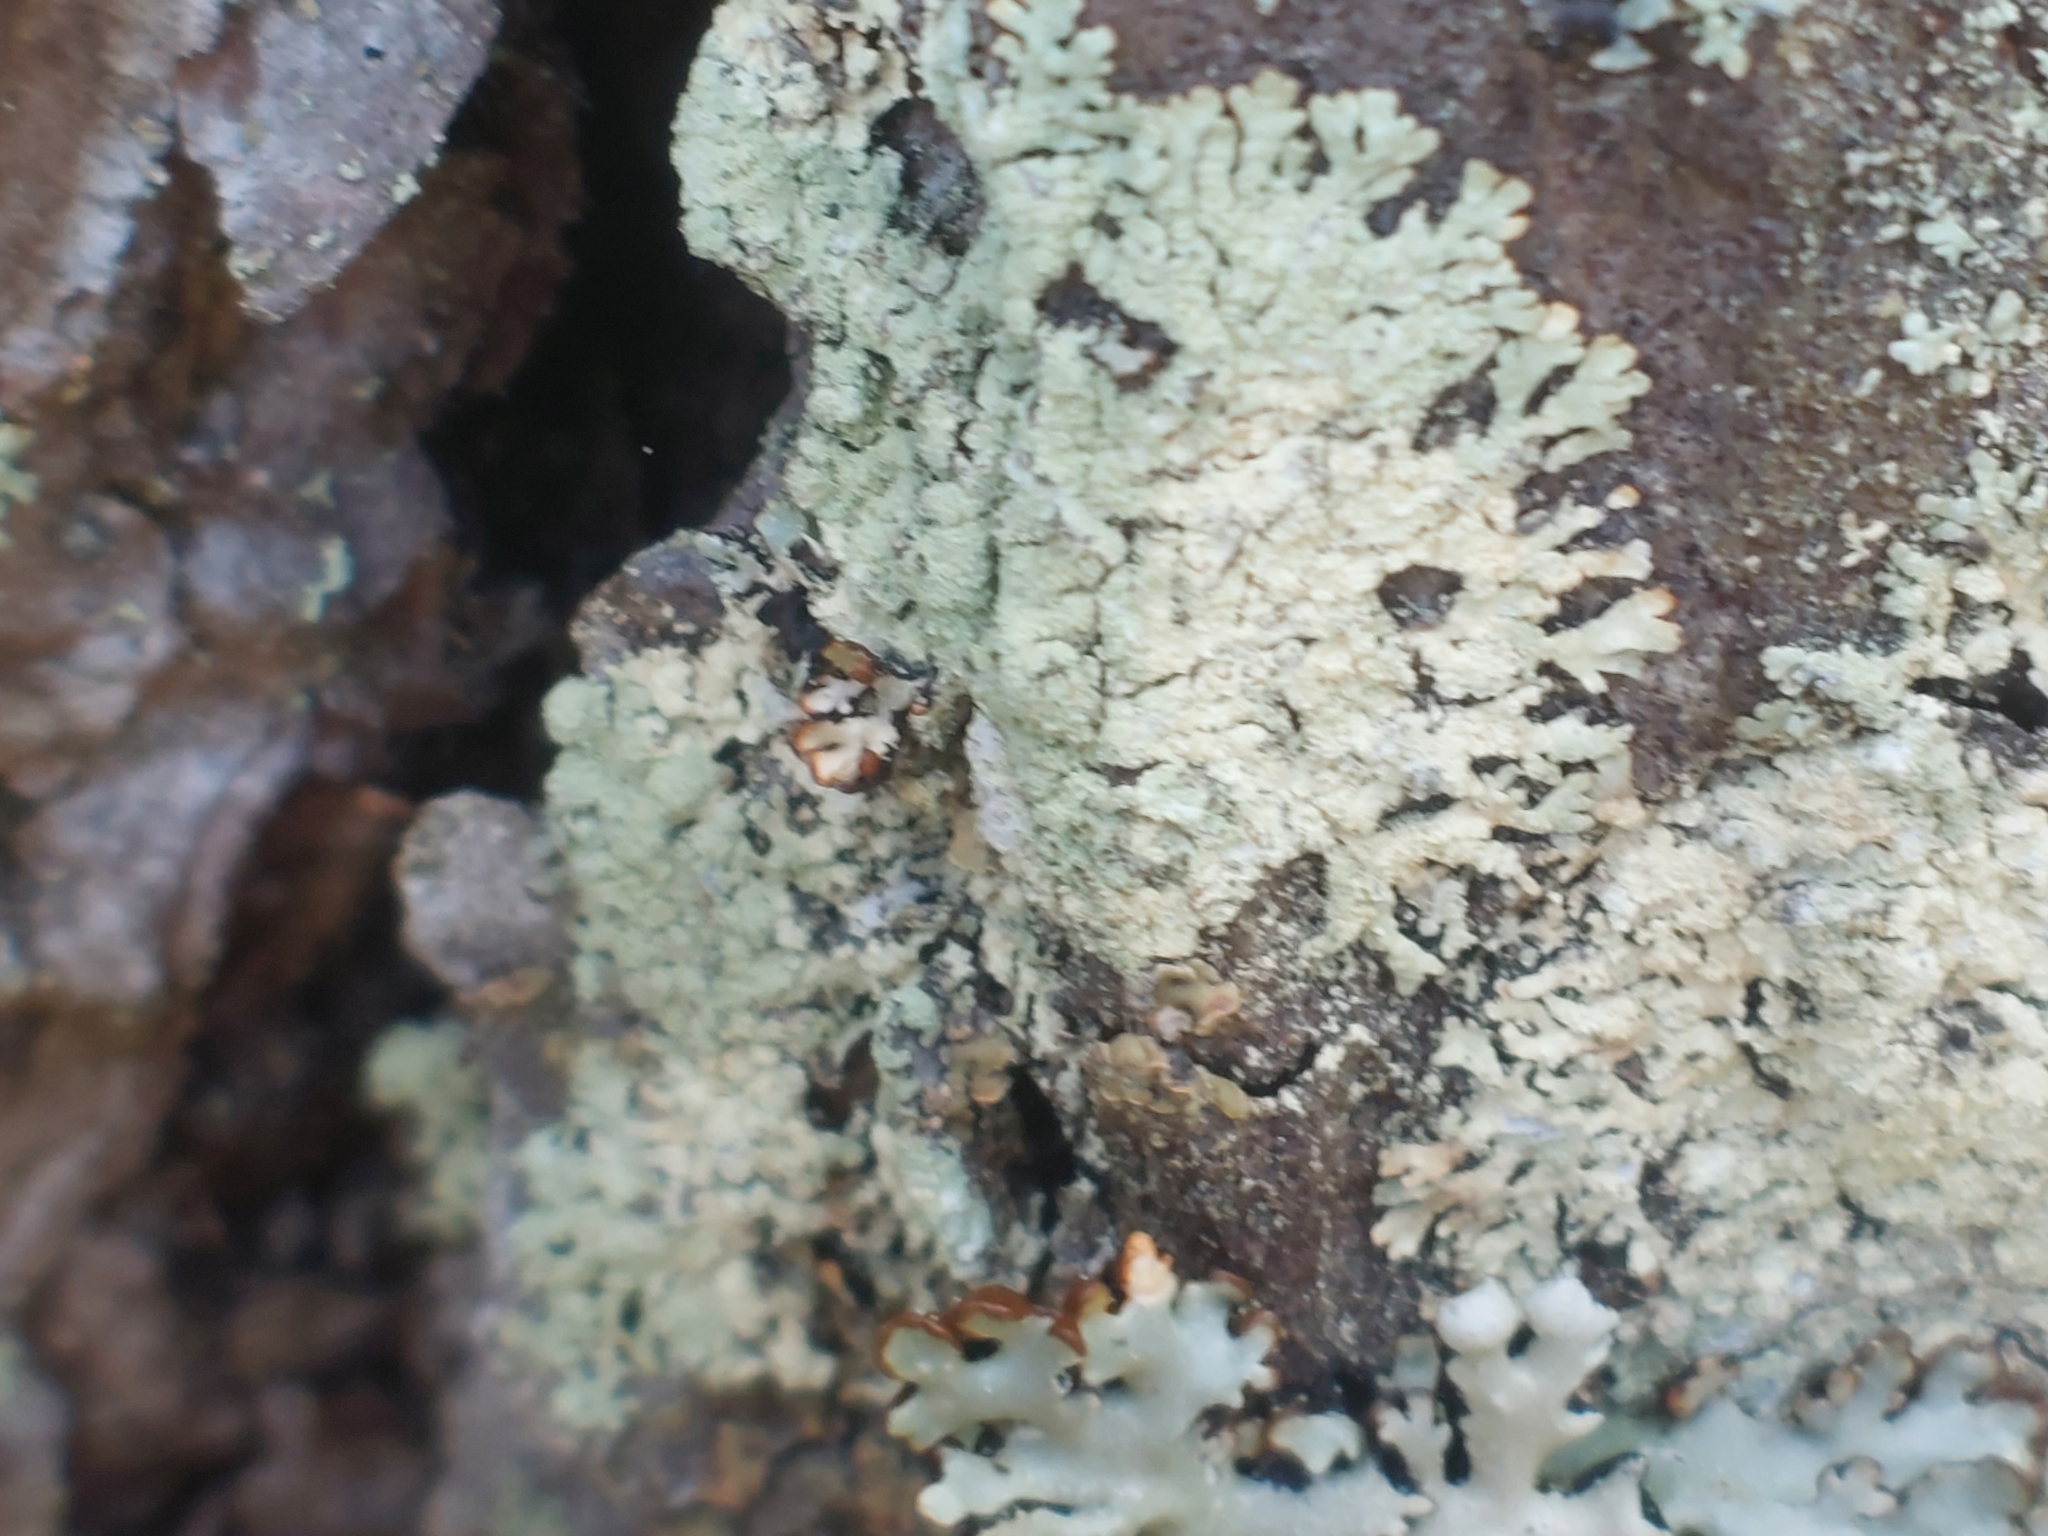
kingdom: Fungi
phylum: Ascomycota
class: Lecanoromycetes
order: Lecanorales
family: Parmeliaceae
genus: Parmeliopsis
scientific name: Parmeliopsis ambigua
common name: Green starburst lichen
